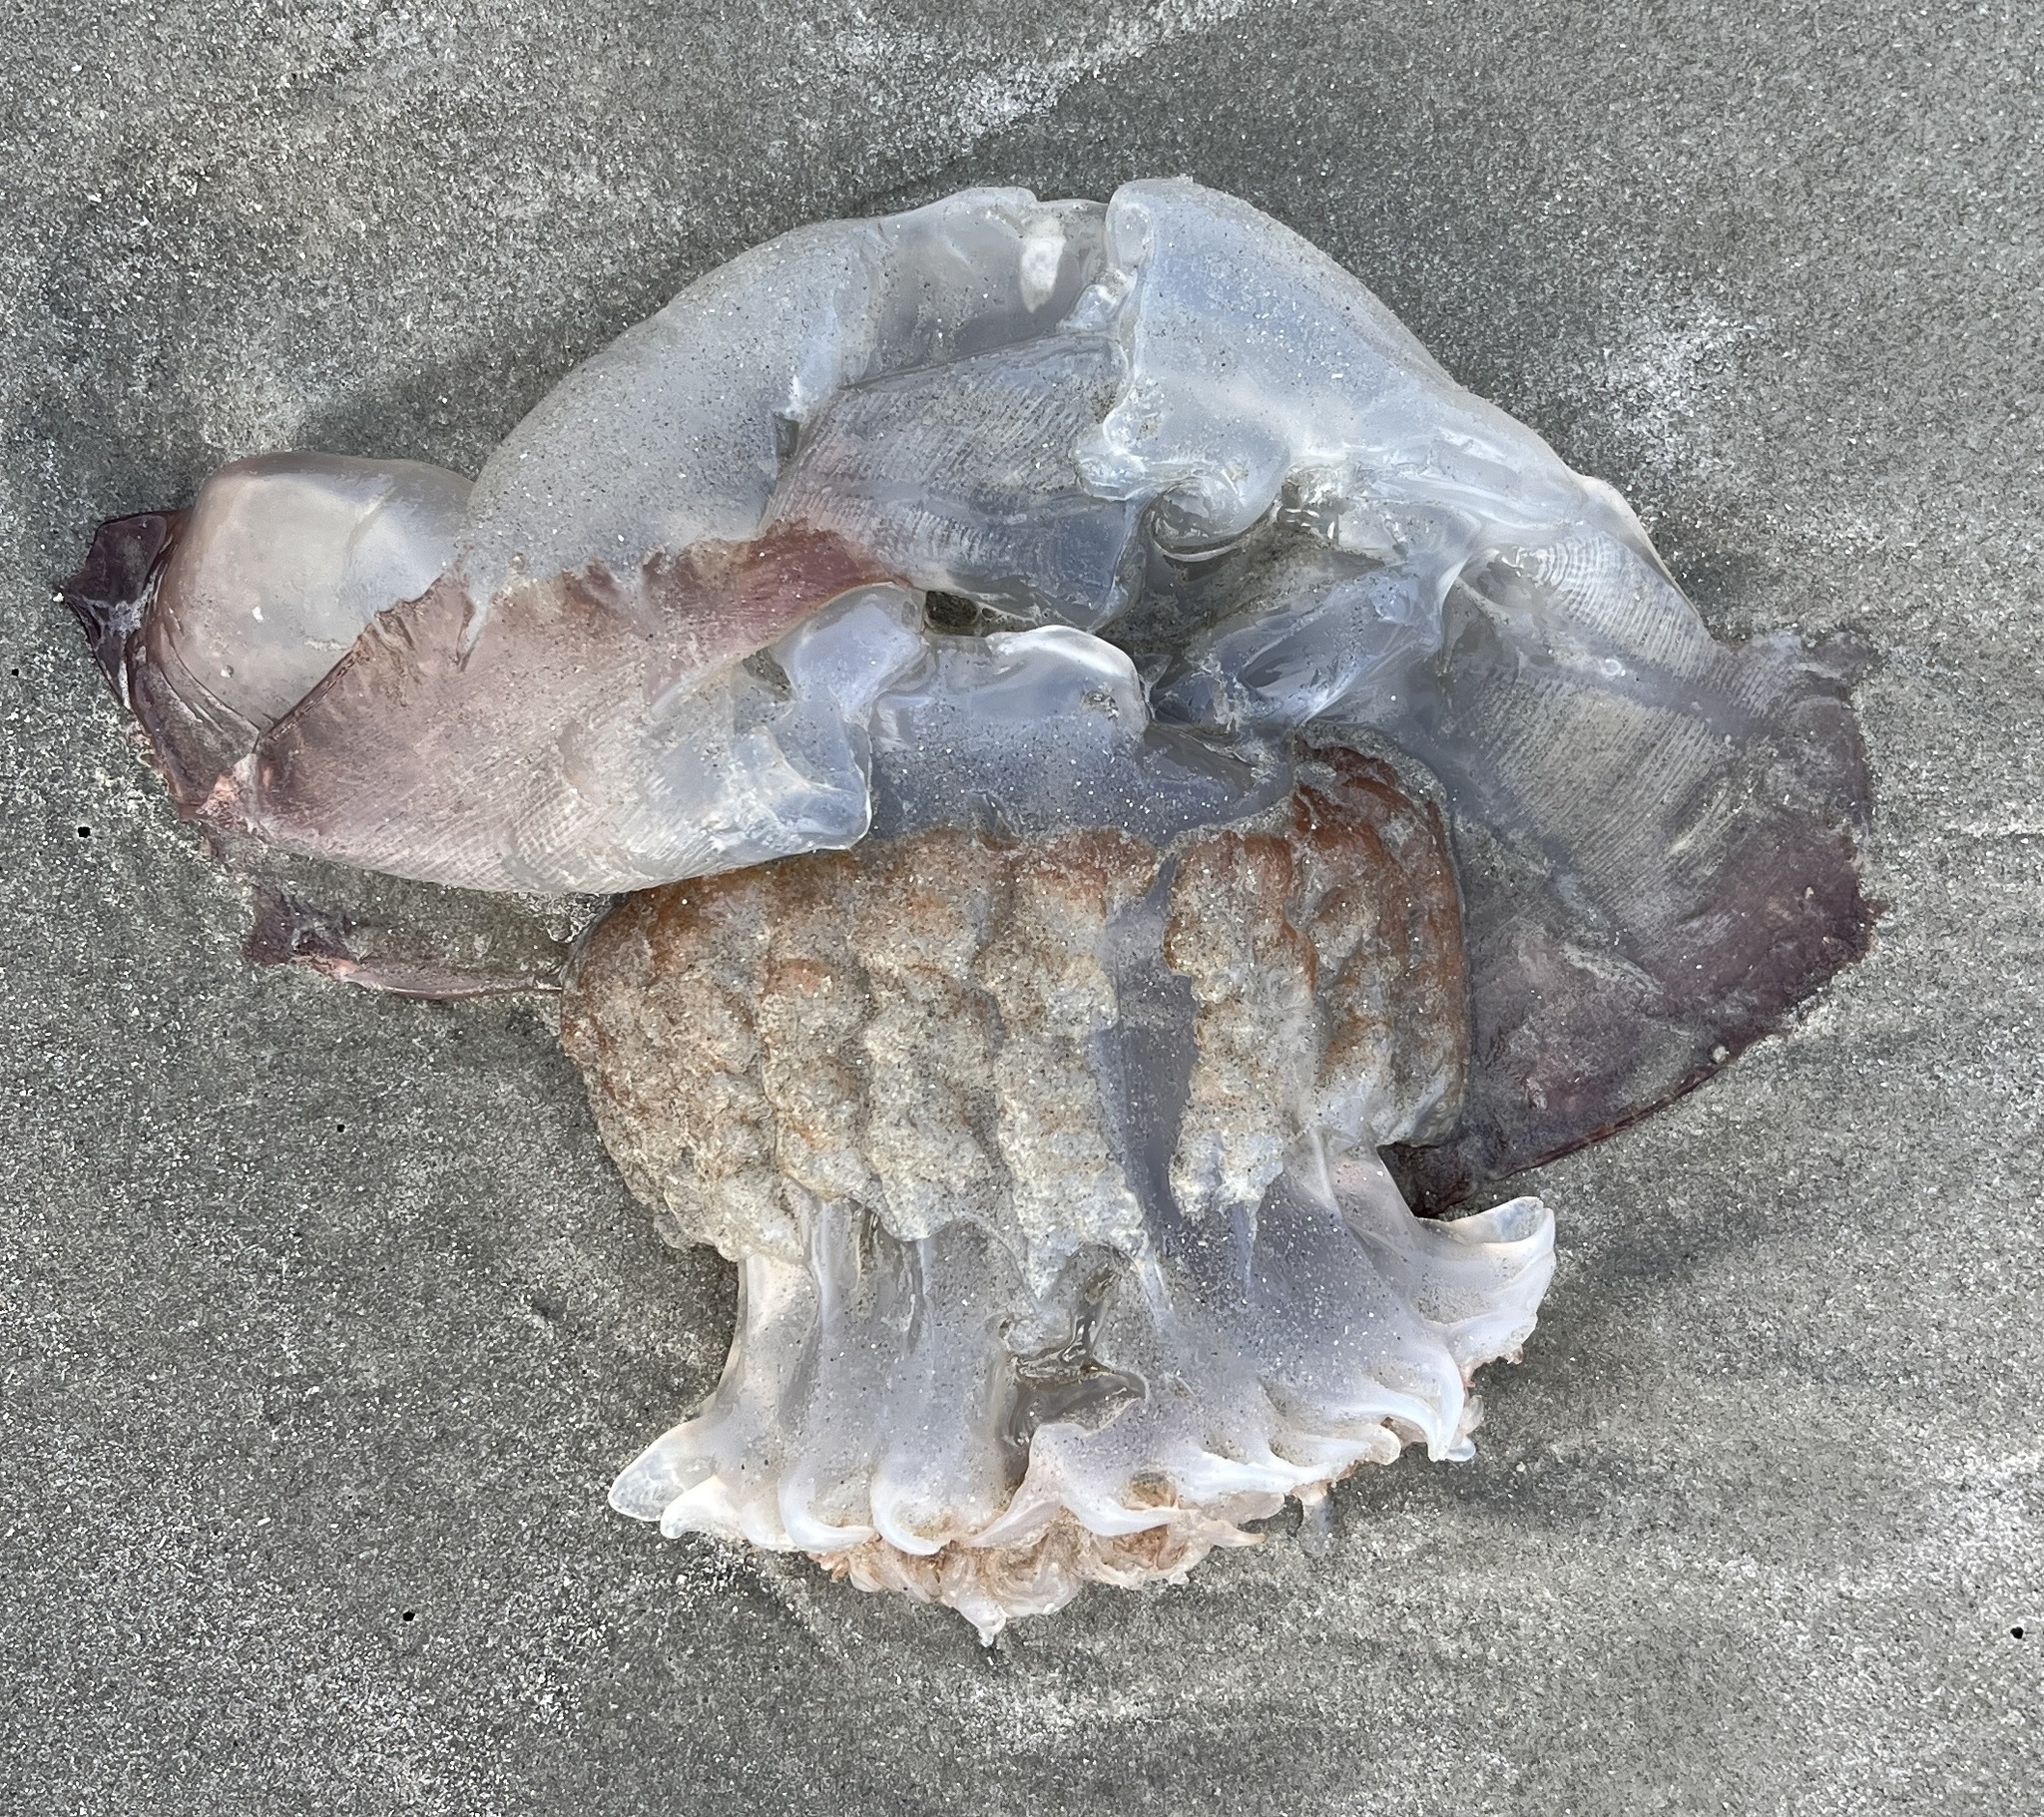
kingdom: Animalia
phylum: Cnidaria
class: Scyphozoa
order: Rhizostomeae
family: Stomolophidae
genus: Stomolophus
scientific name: Stomolophus meleagris
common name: Cabbagehead
